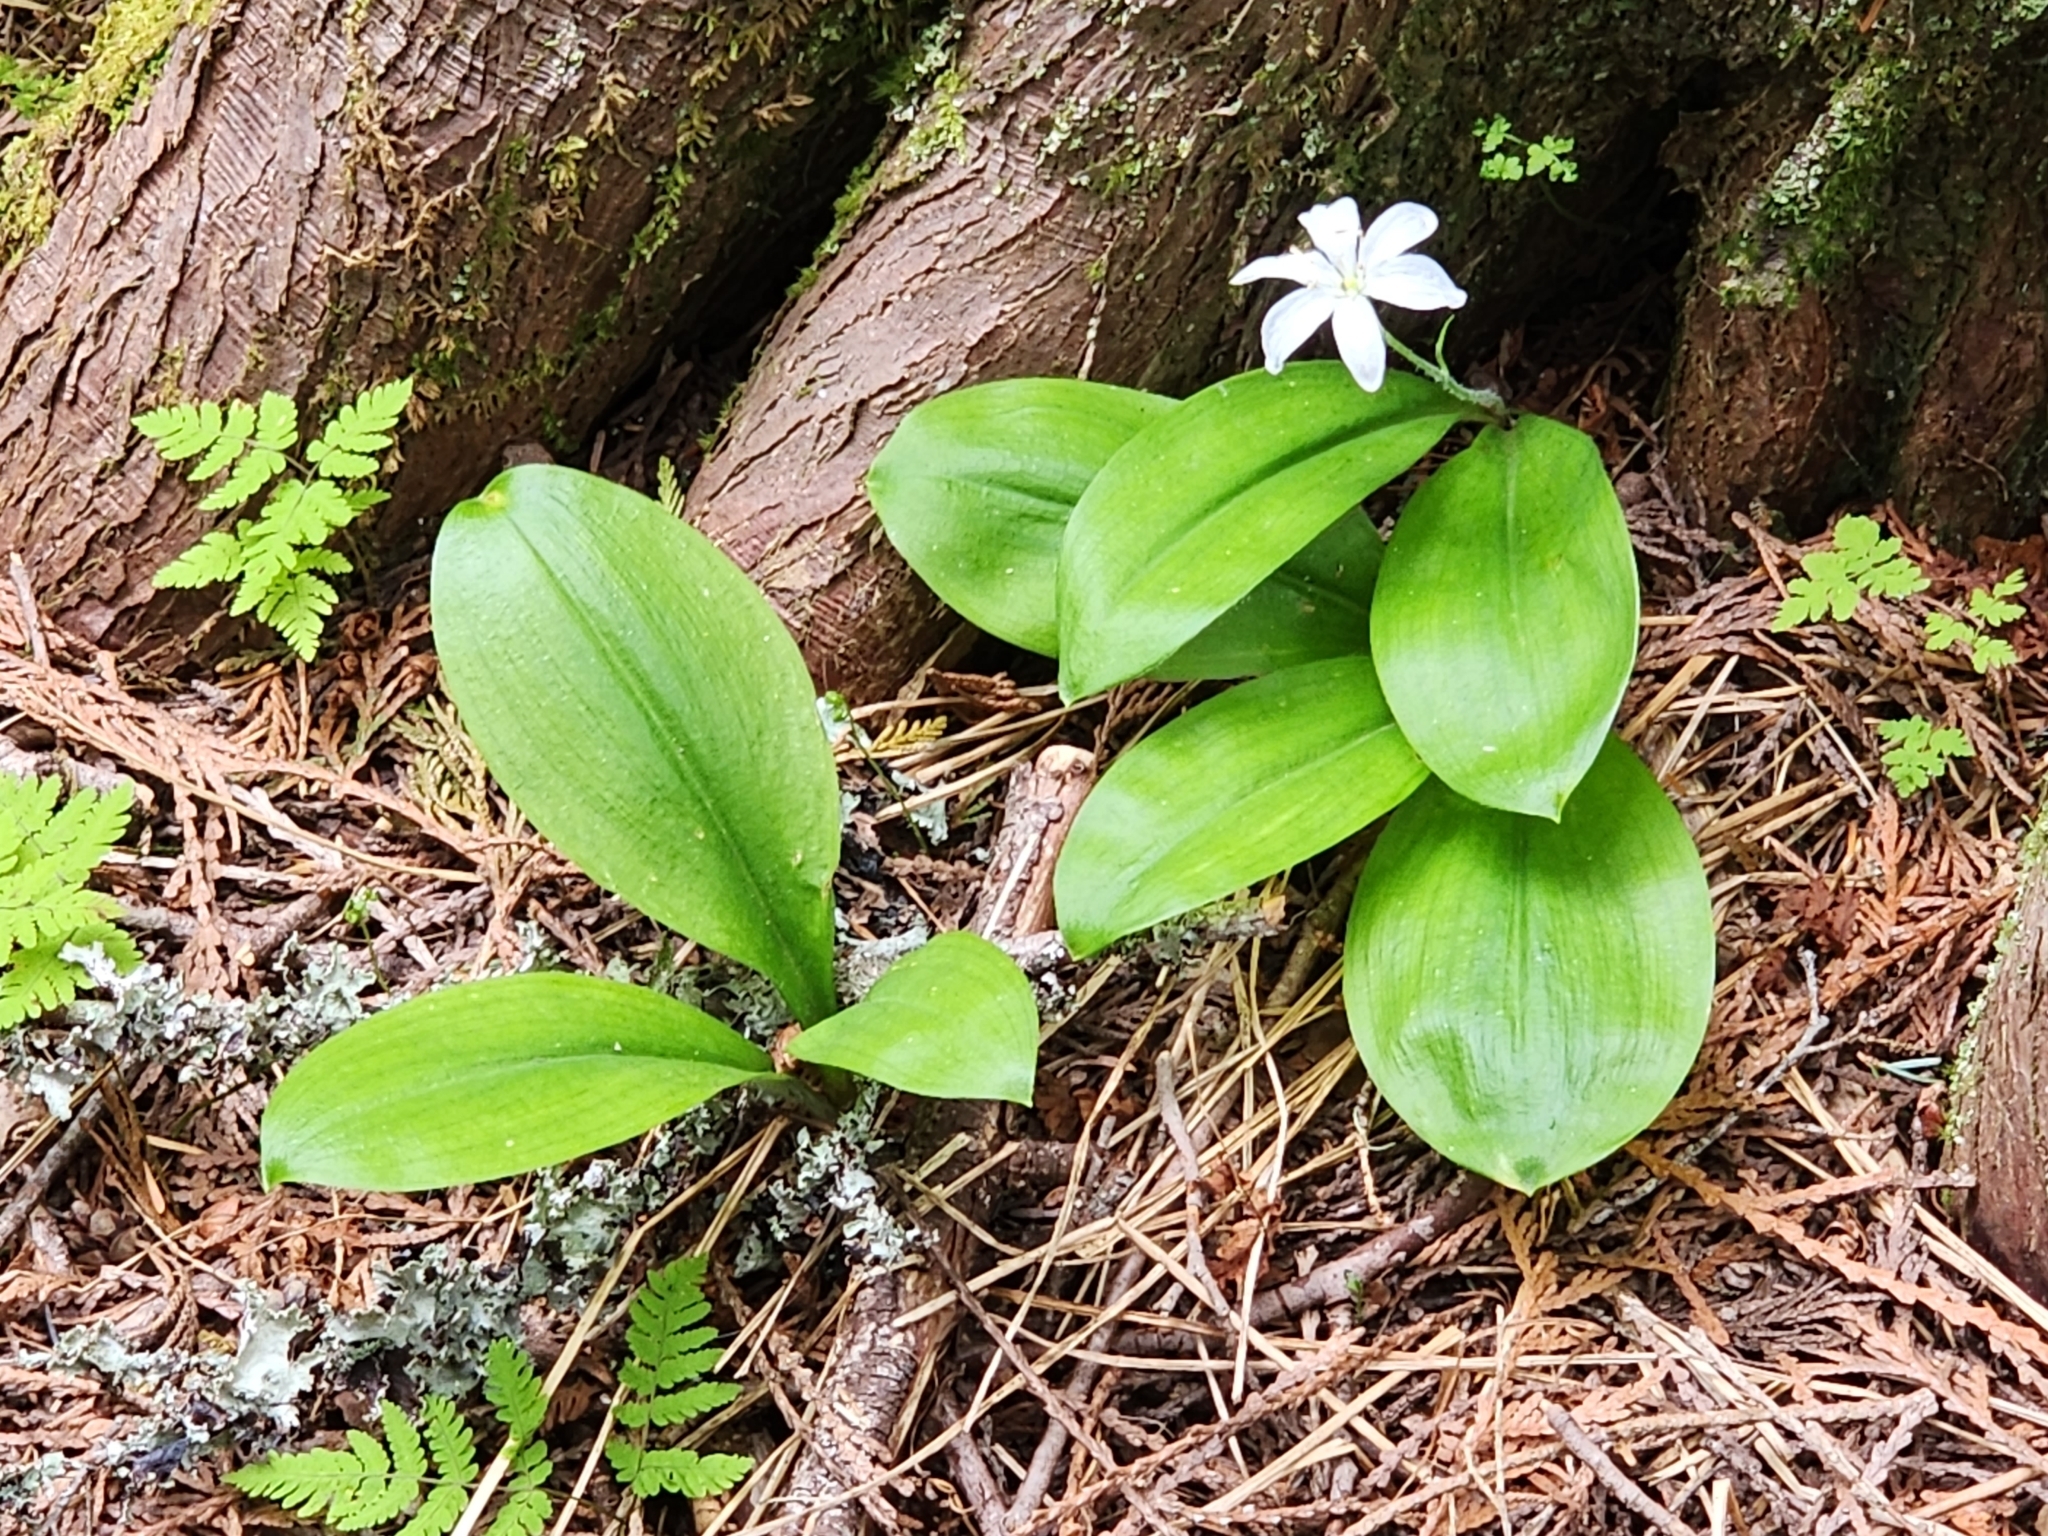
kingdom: Plantae
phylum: Tracheophyta
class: Liliopsida
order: Liliales
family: Liliaceae
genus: Clintonia
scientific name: Clintonia uniflora
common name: Queen's cup
